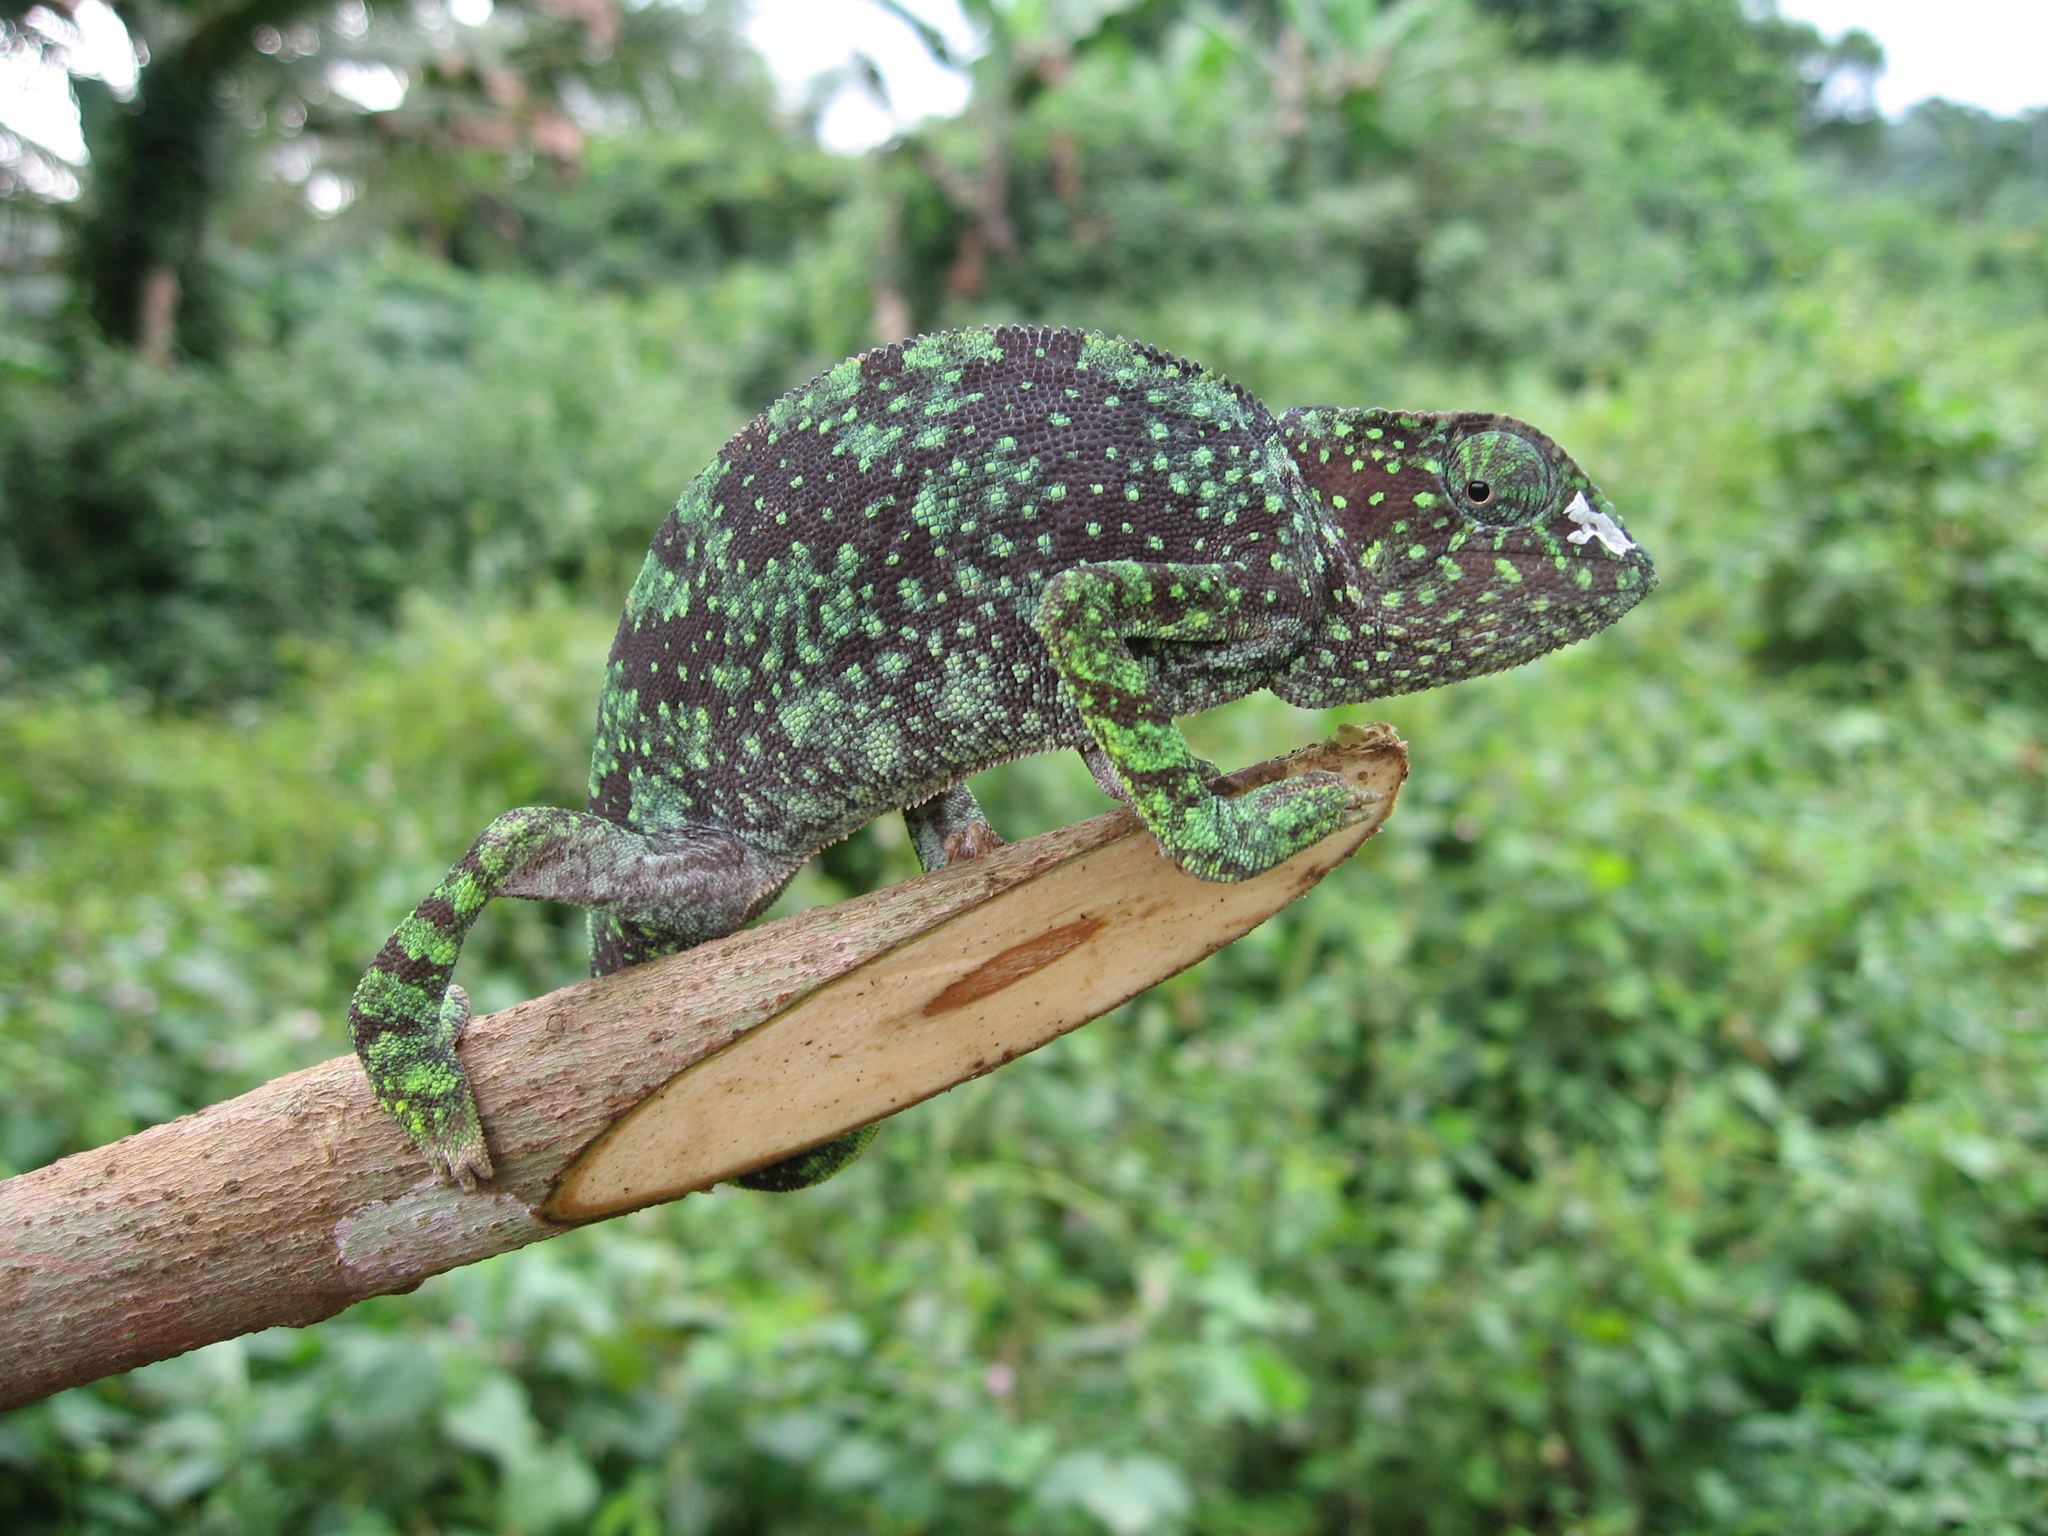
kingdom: Animalia
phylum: Chordata
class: Squamata
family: Chamaeleonidae
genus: Chamaeleo
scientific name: Chamaeleo gracilis
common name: Graceful chameleon
